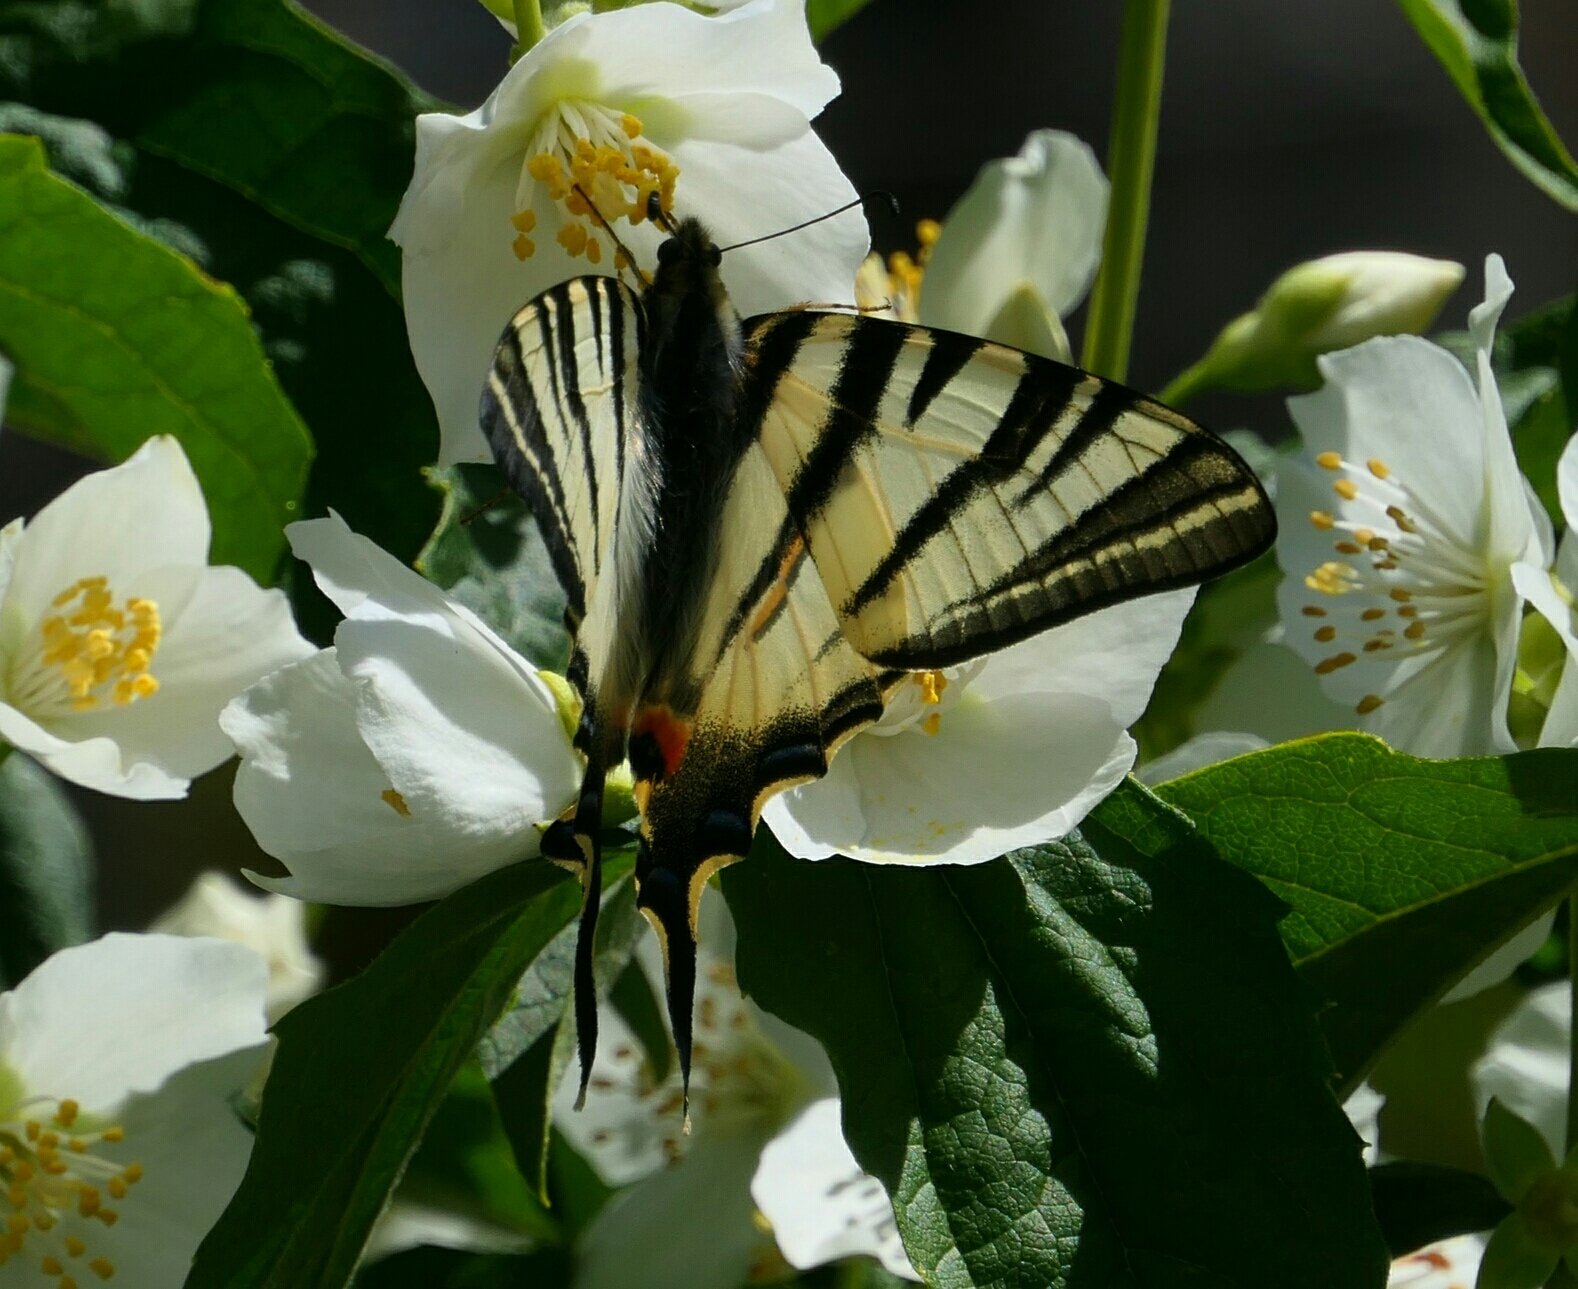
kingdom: Animalia
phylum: Arthropoda
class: Insecta
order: Lepidoptera
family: Papilionidae
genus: Iphiclides
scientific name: Iphiclides podalirius
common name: Scarce swallowtail
